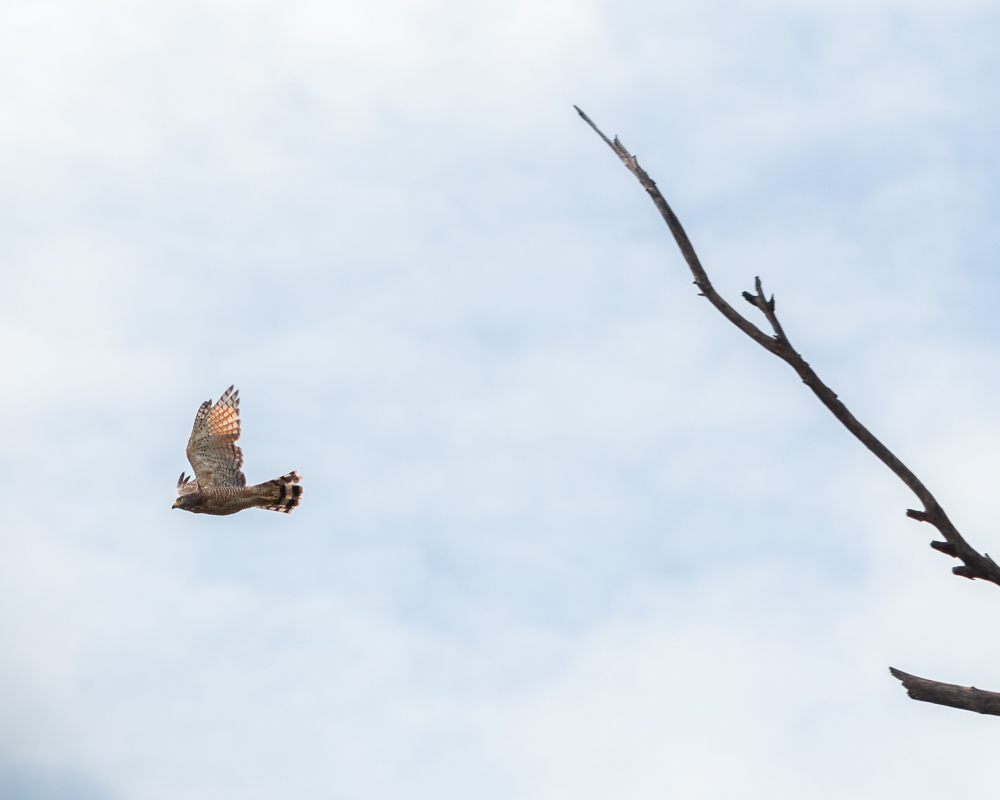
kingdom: Animalia
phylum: Chordata
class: Aves
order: Accipitriformes
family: Accipitridae
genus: Rupornis
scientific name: Rupornis magnirostris
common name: Roadside hawk
